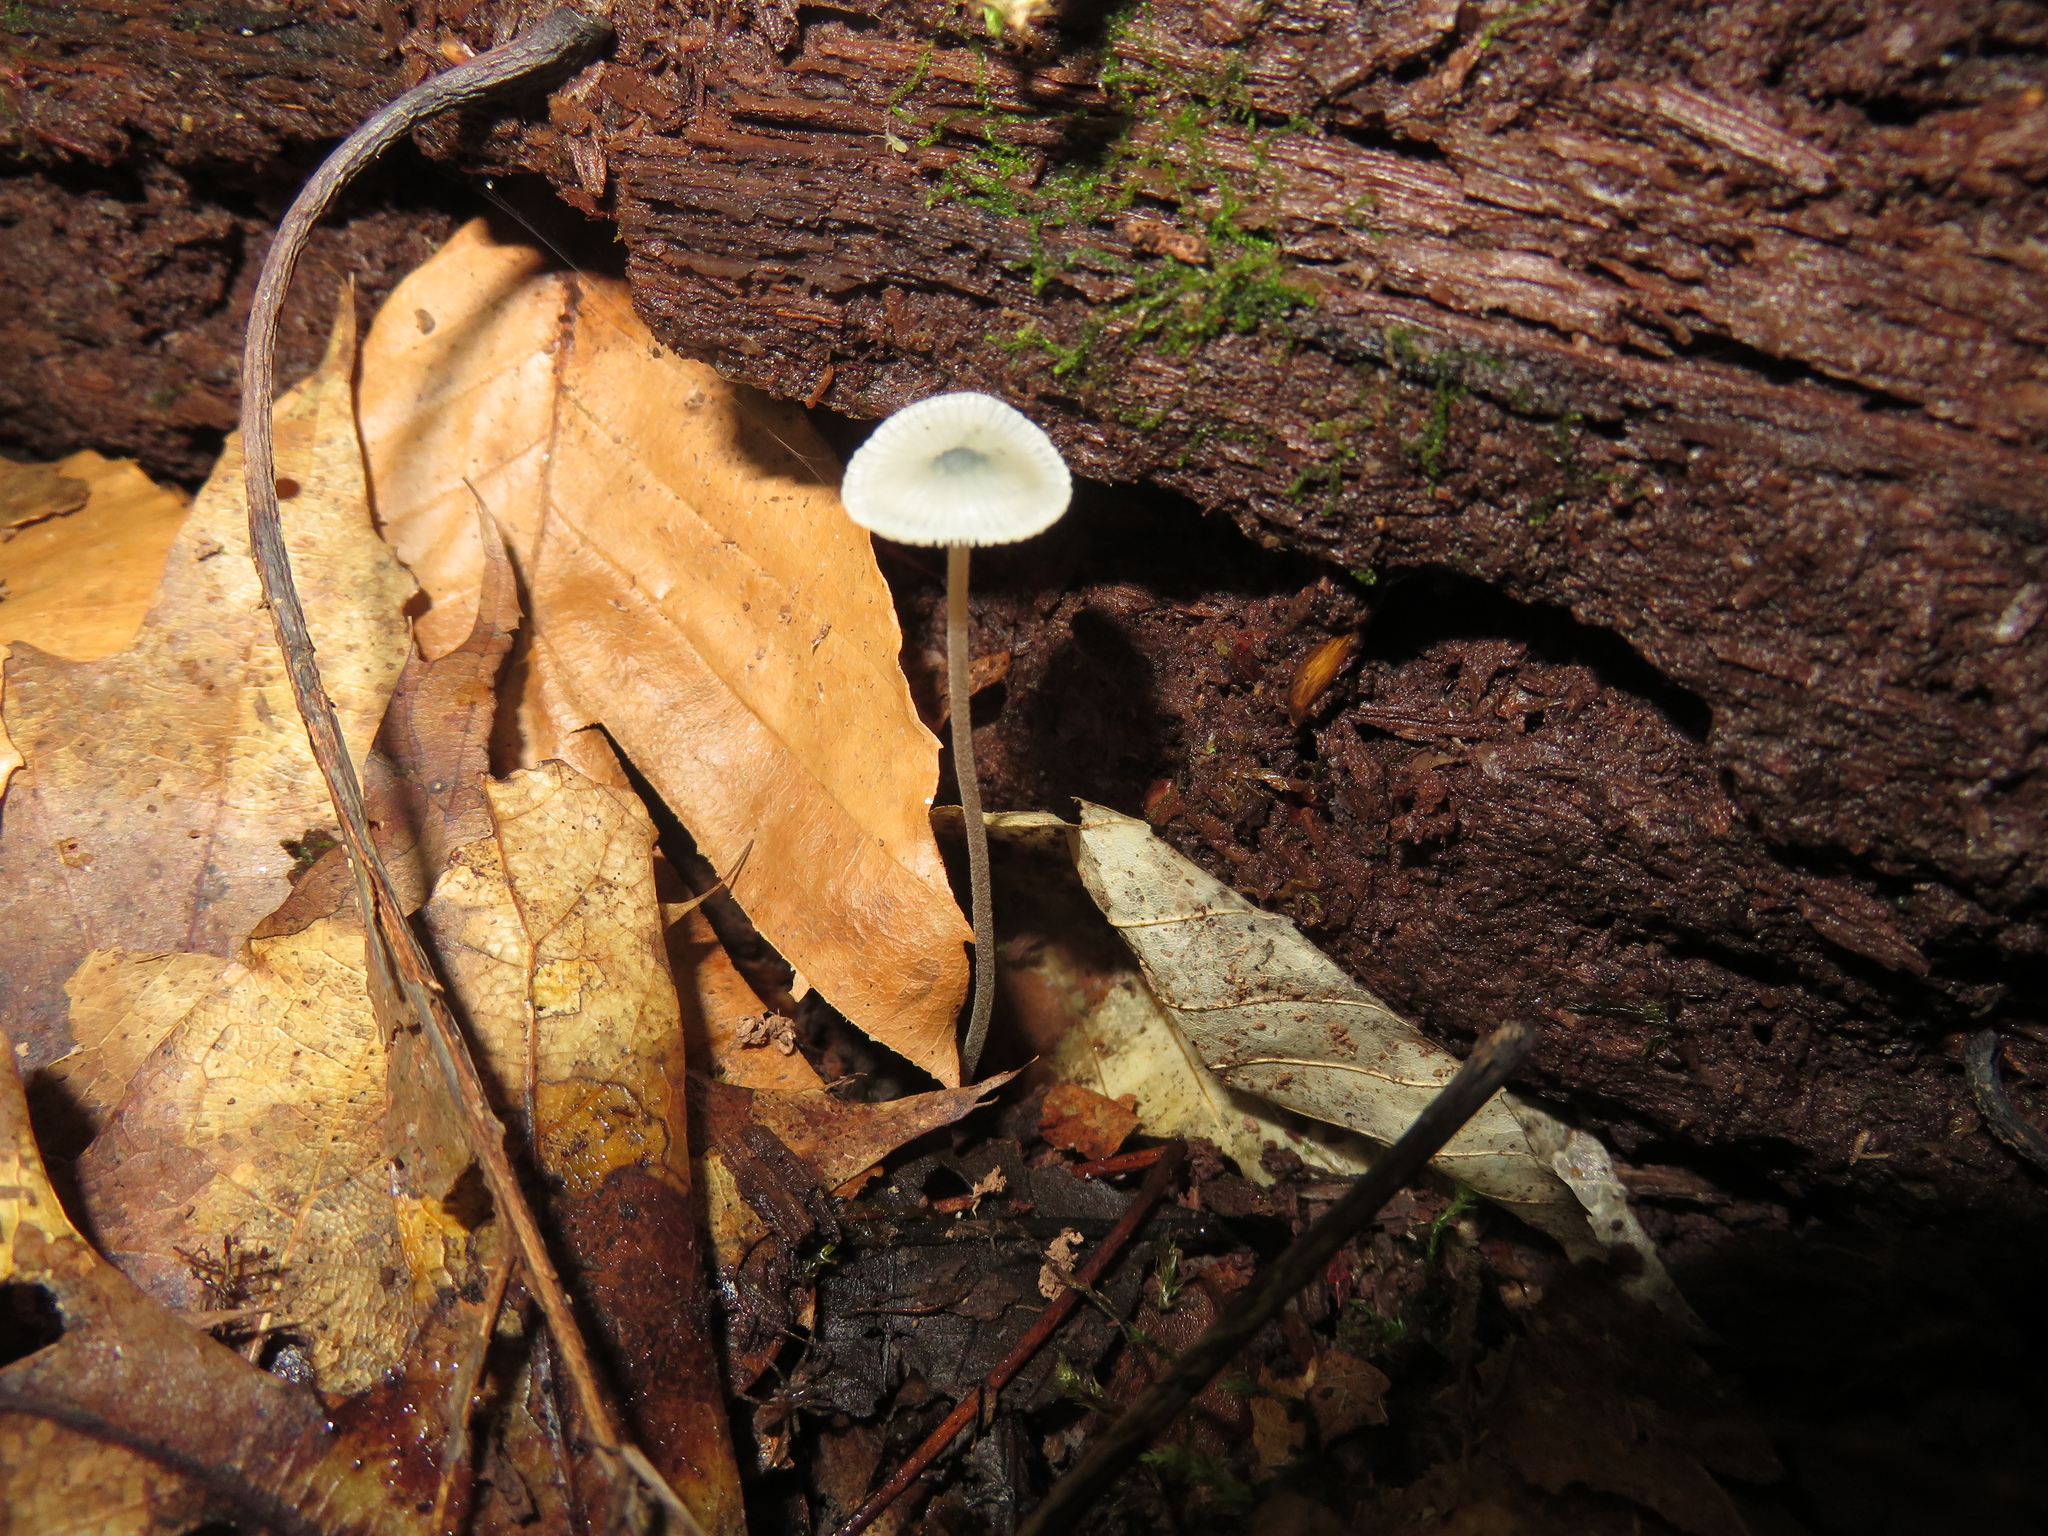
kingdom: Fungi
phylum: Basidiomycota
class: Agaricomycetes
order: Agaricales
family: Mycenaceae
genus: Mycena
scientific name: Mycena subcaerulea
